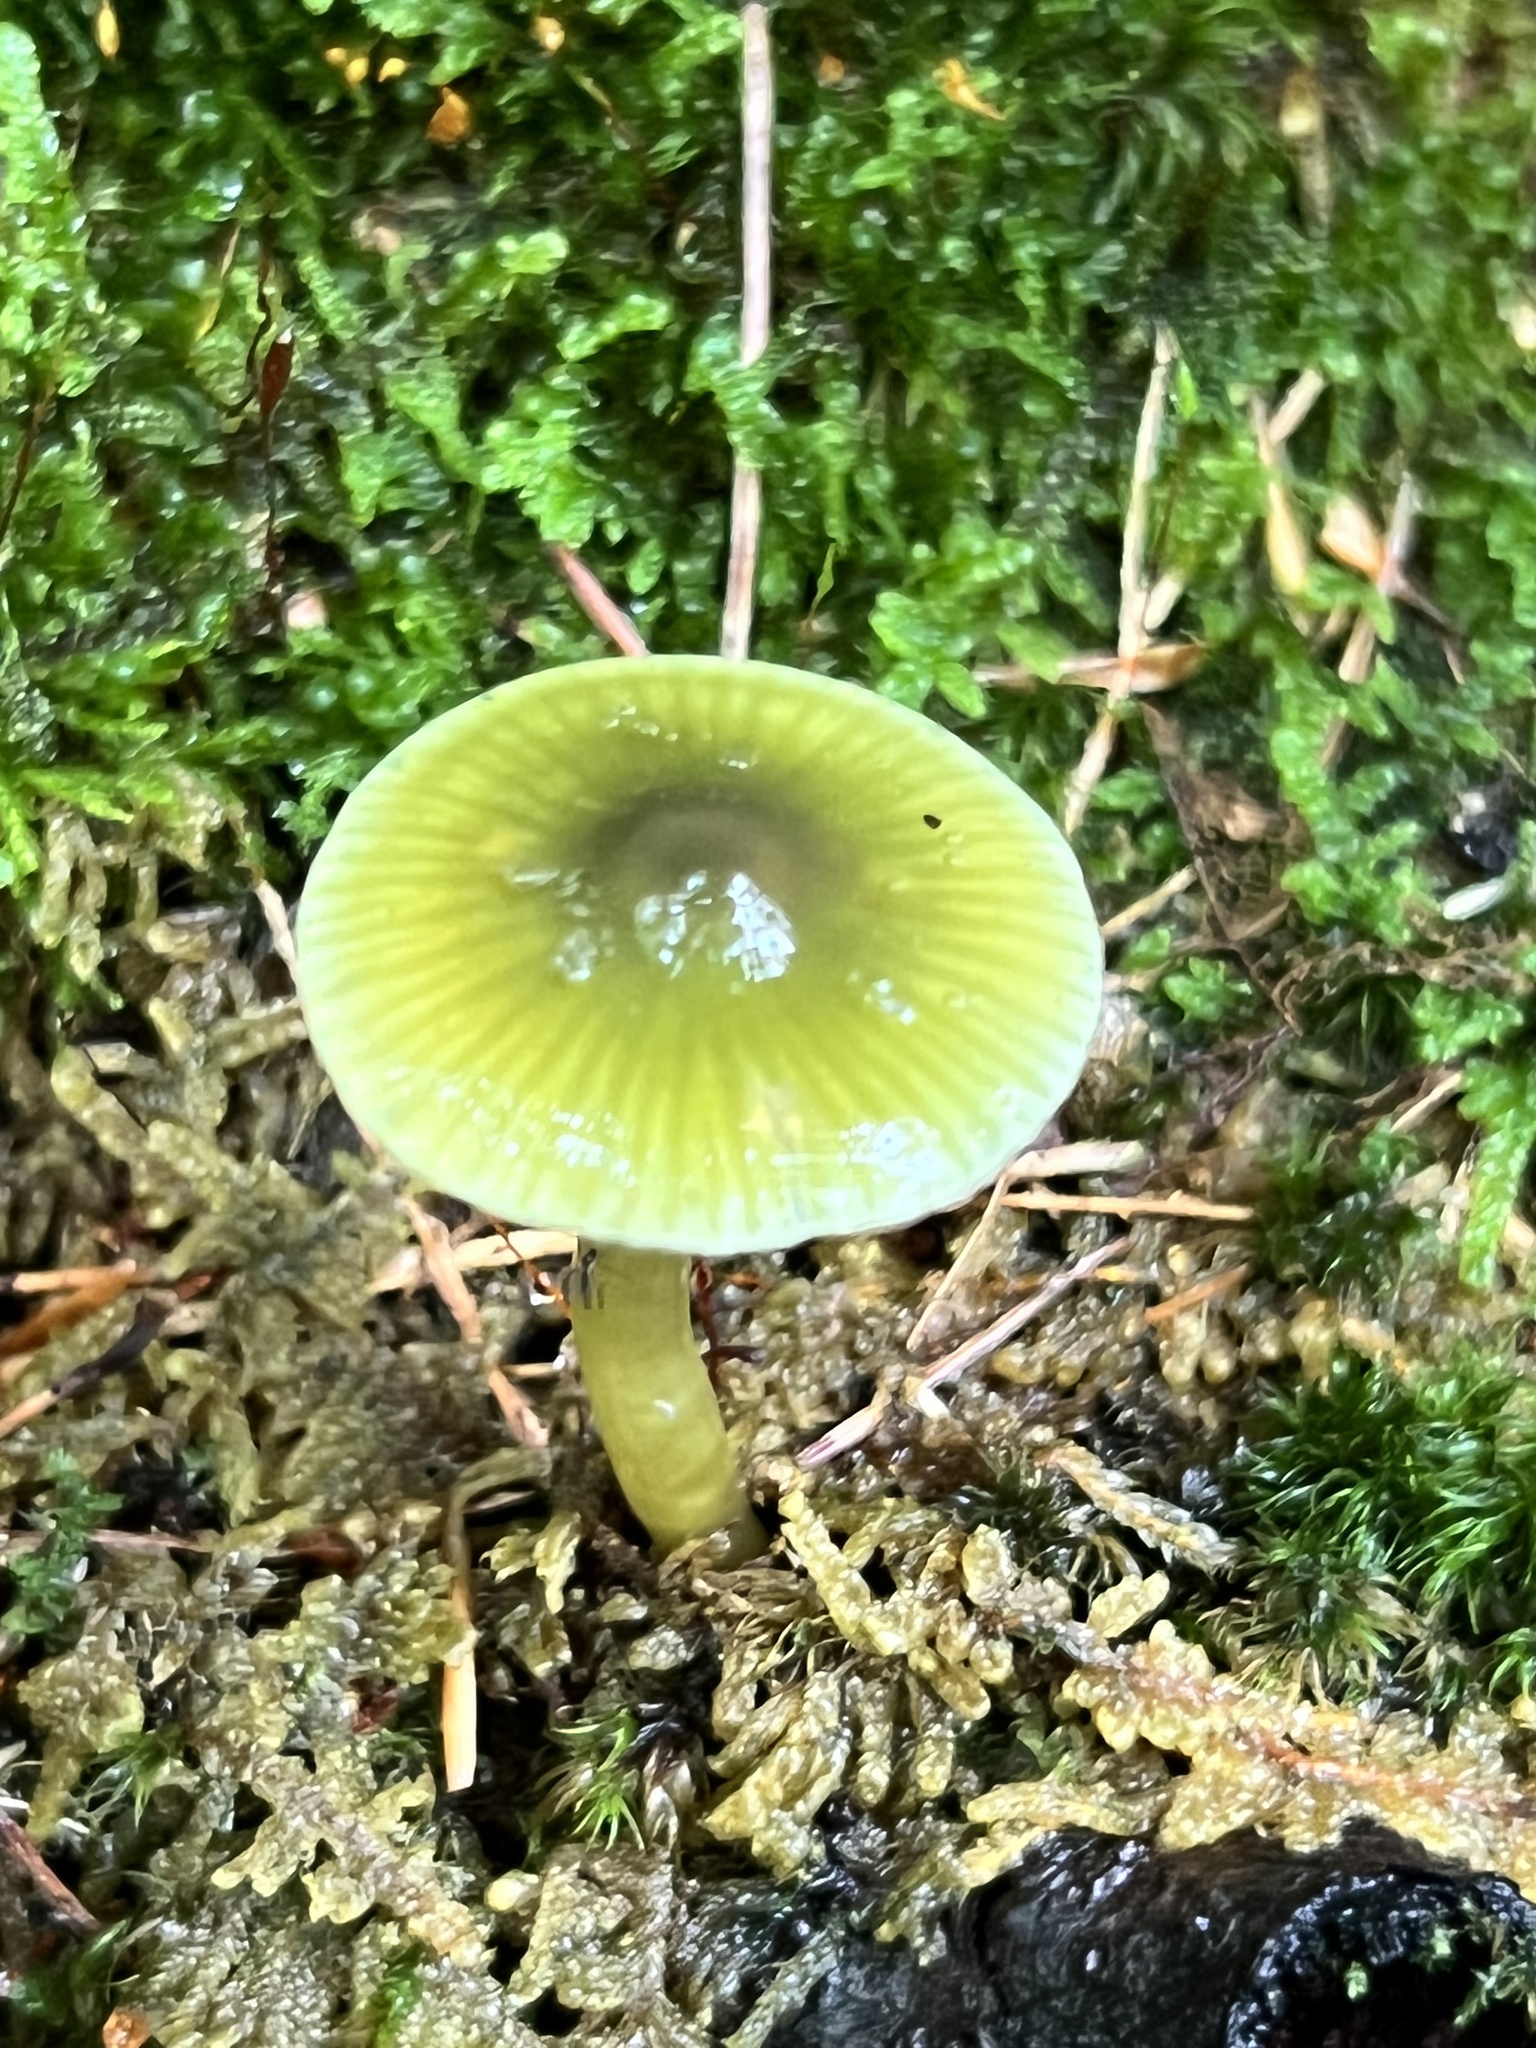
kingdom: Fungi
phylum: Basidiomycota
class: Agaricomycetes
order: Agaricales
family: Hygrophoraceae
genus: Gliophorus
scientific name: Gliophorus psittacinus
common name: Parrot wax-cap
